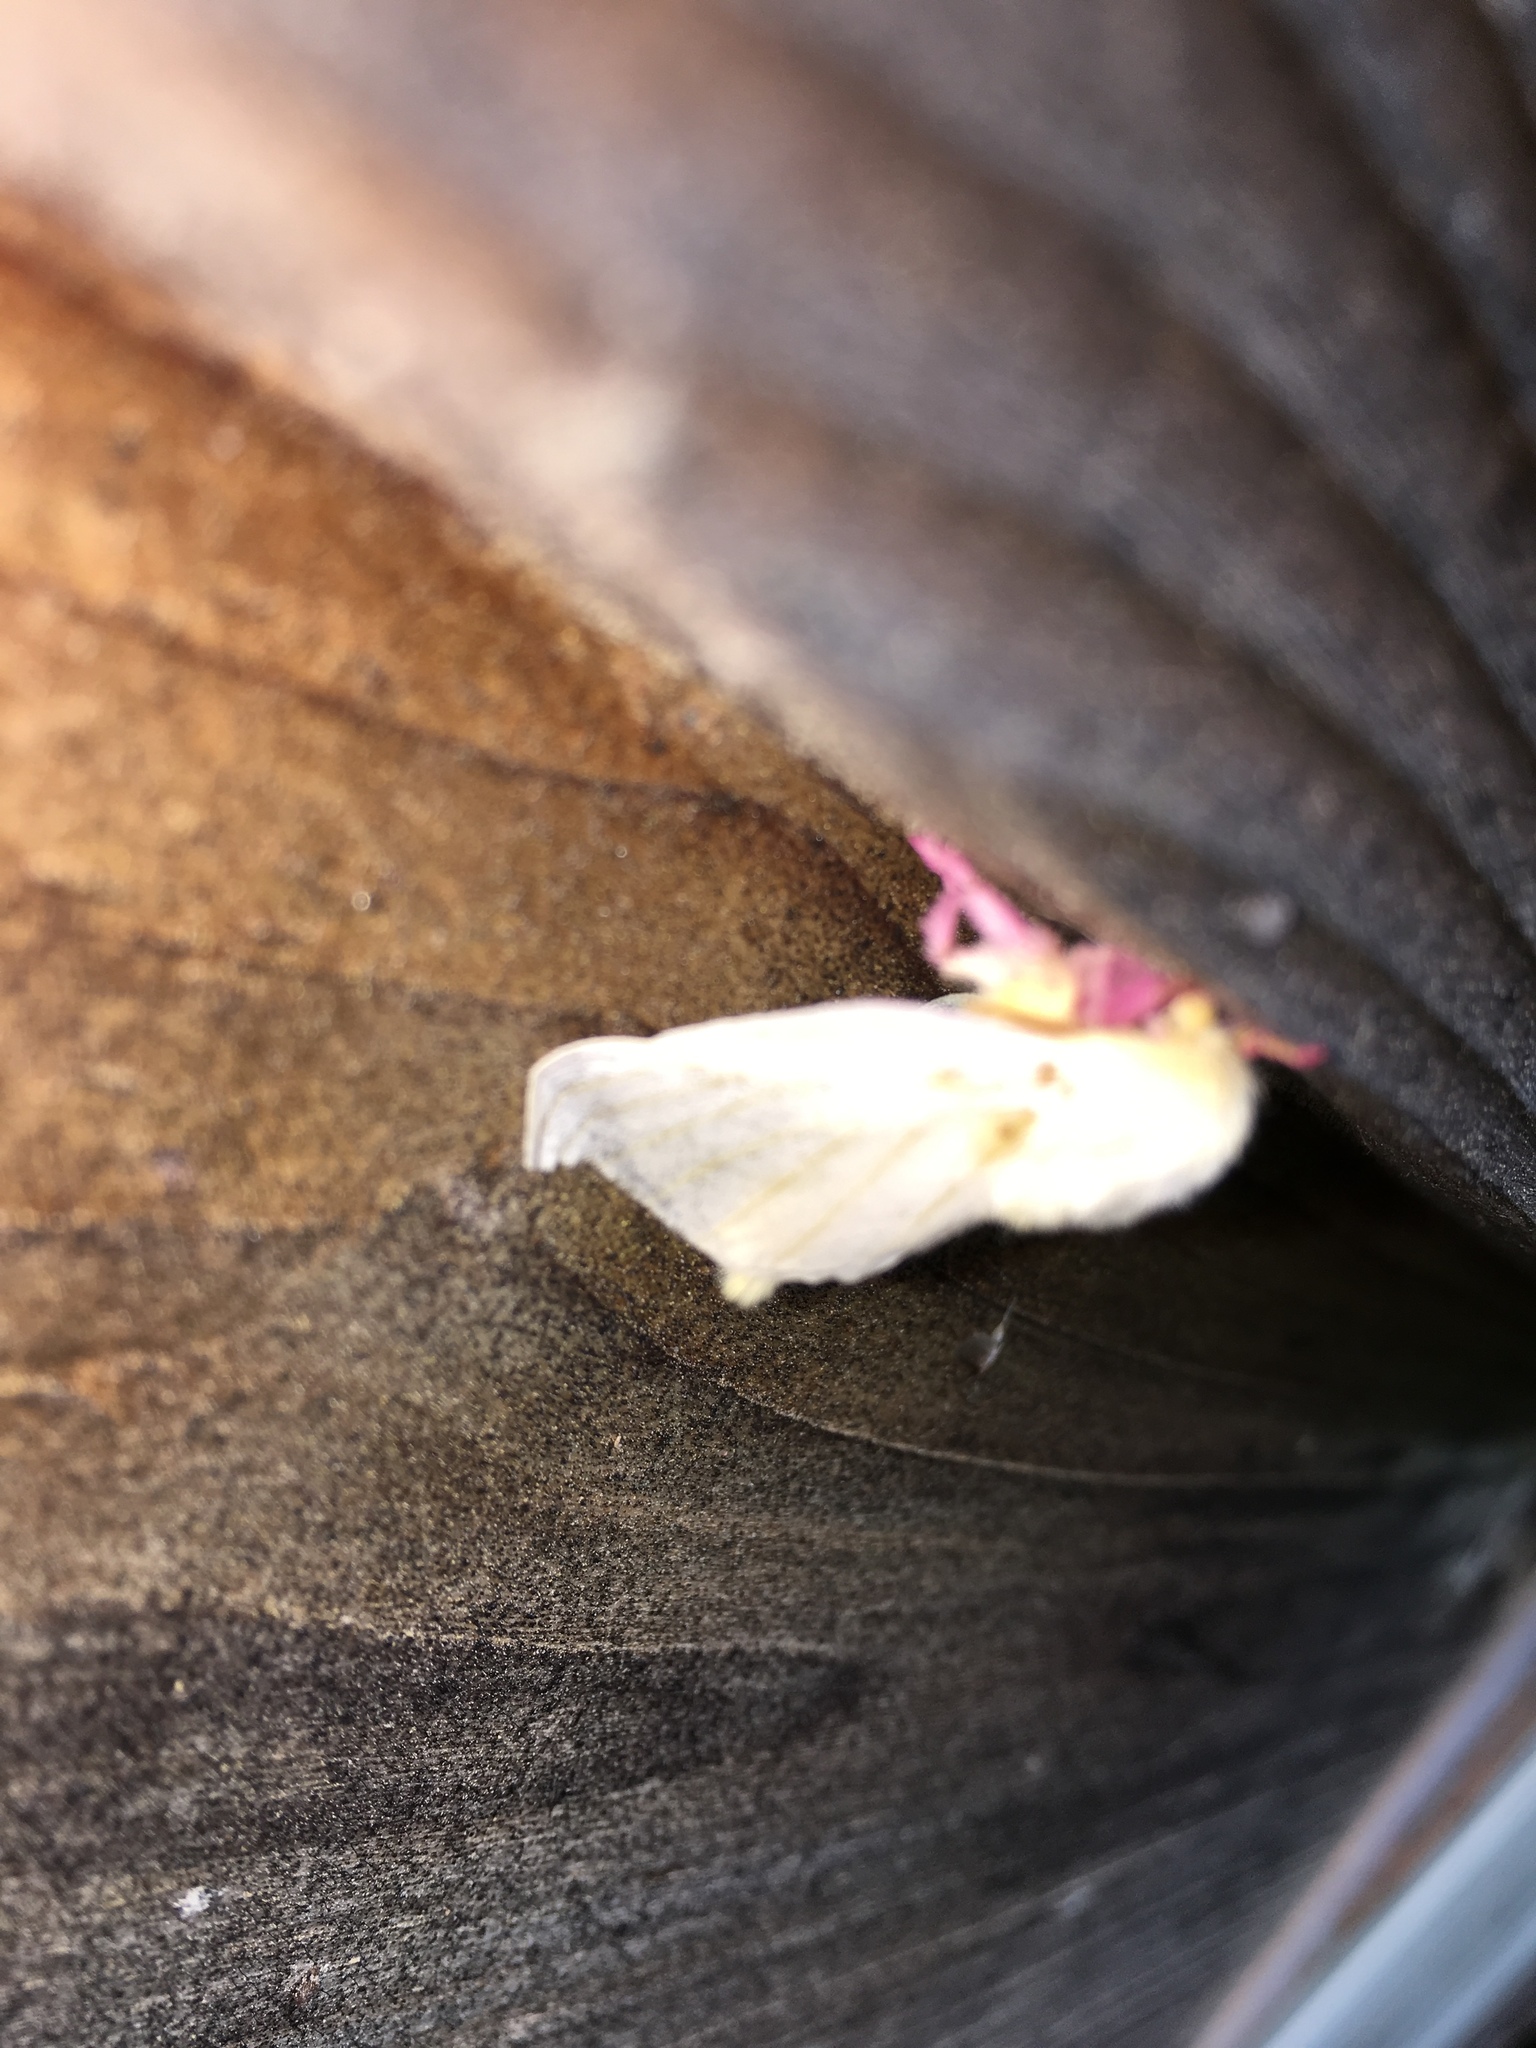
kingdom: Animalia
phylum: Arthropoda
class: Insecta
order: Lepidoptera
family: Saturniidae
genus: Dryocampa
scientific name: Dryocampa rubicunda
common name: Rosy maple moth
